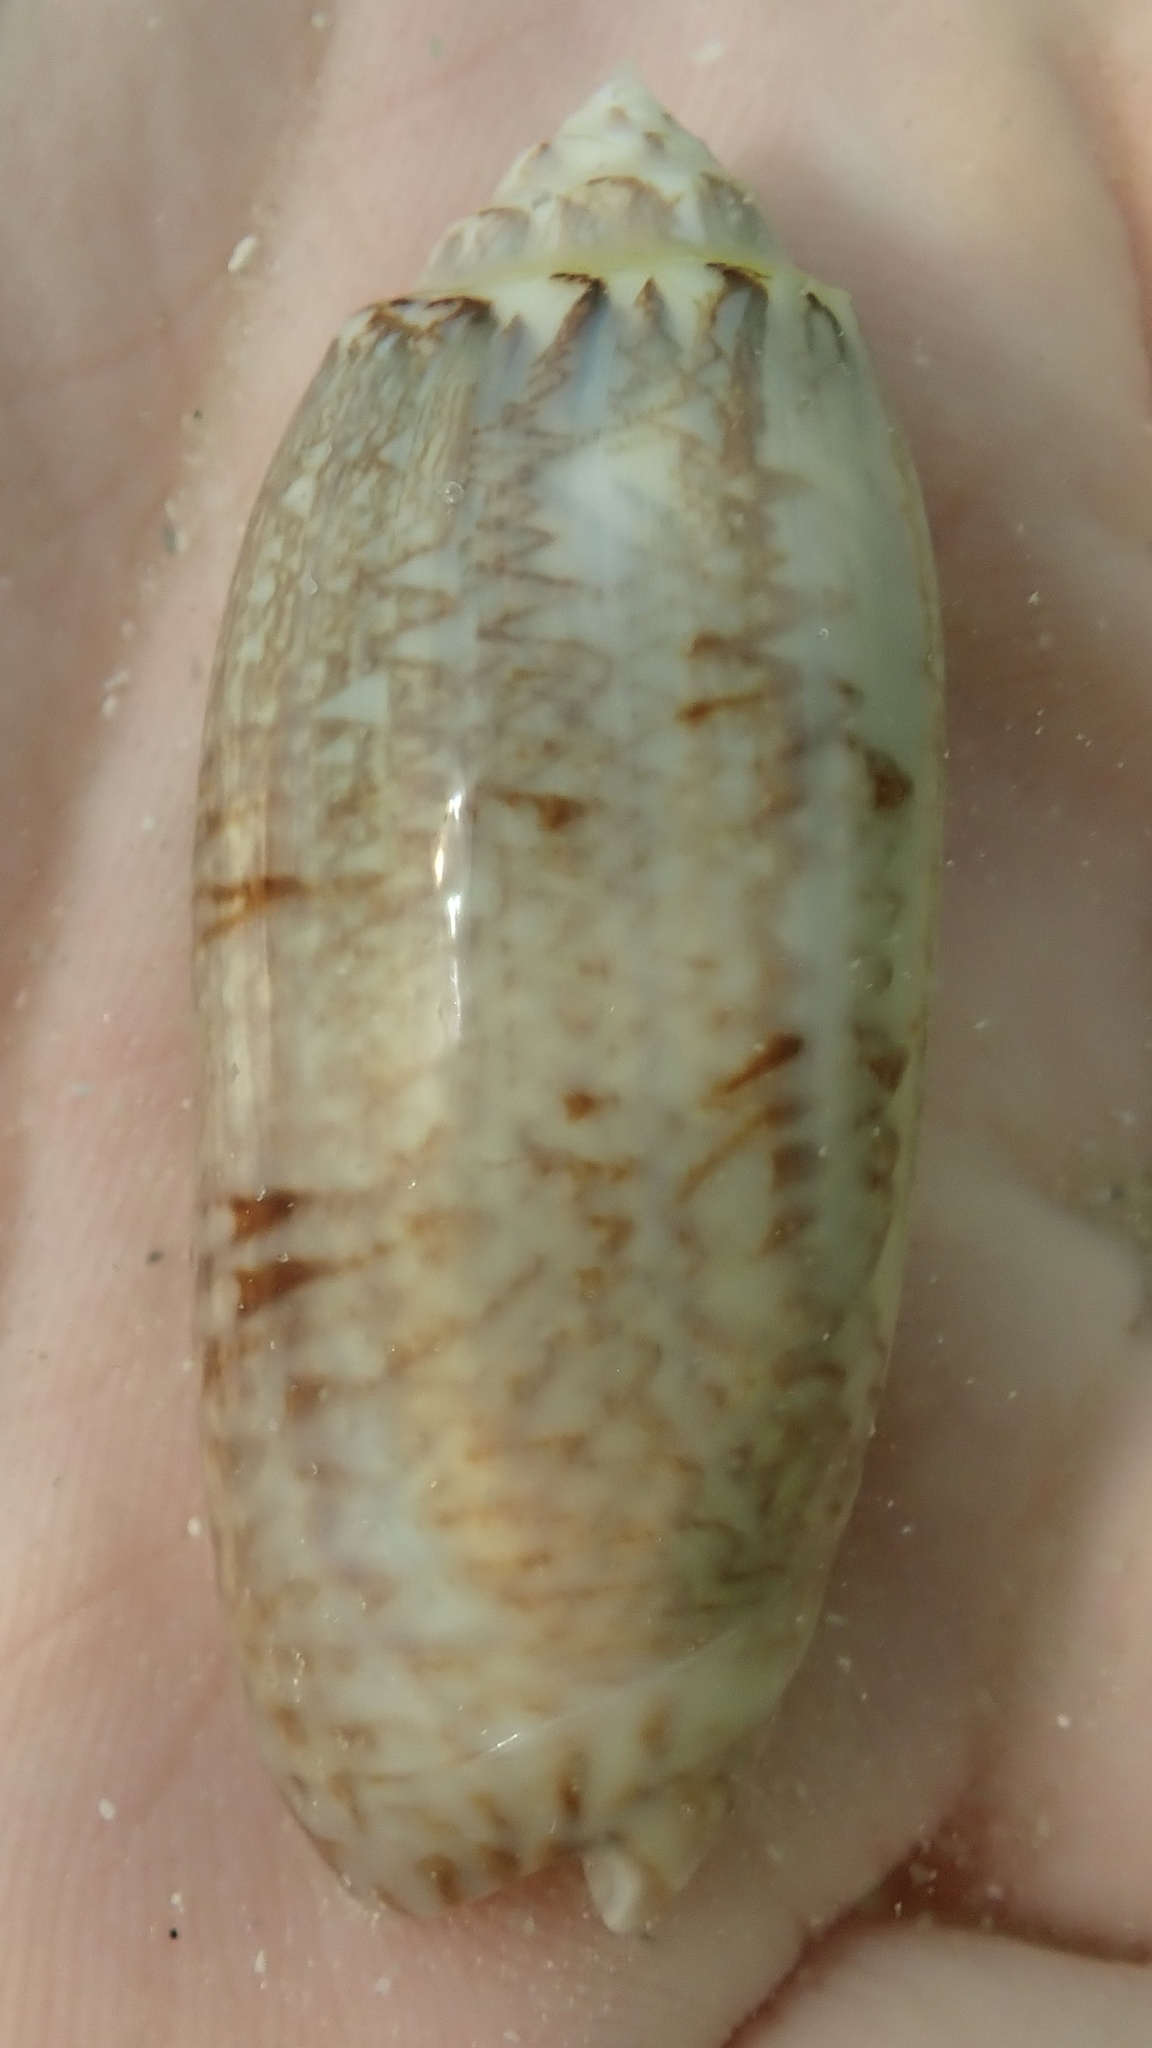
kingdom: Animalia
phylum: Mollusca
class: Gastropoda
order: Neogastropoda
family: Olividae
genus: Oliva
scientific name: Oliva sayana
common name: Lettered olive
